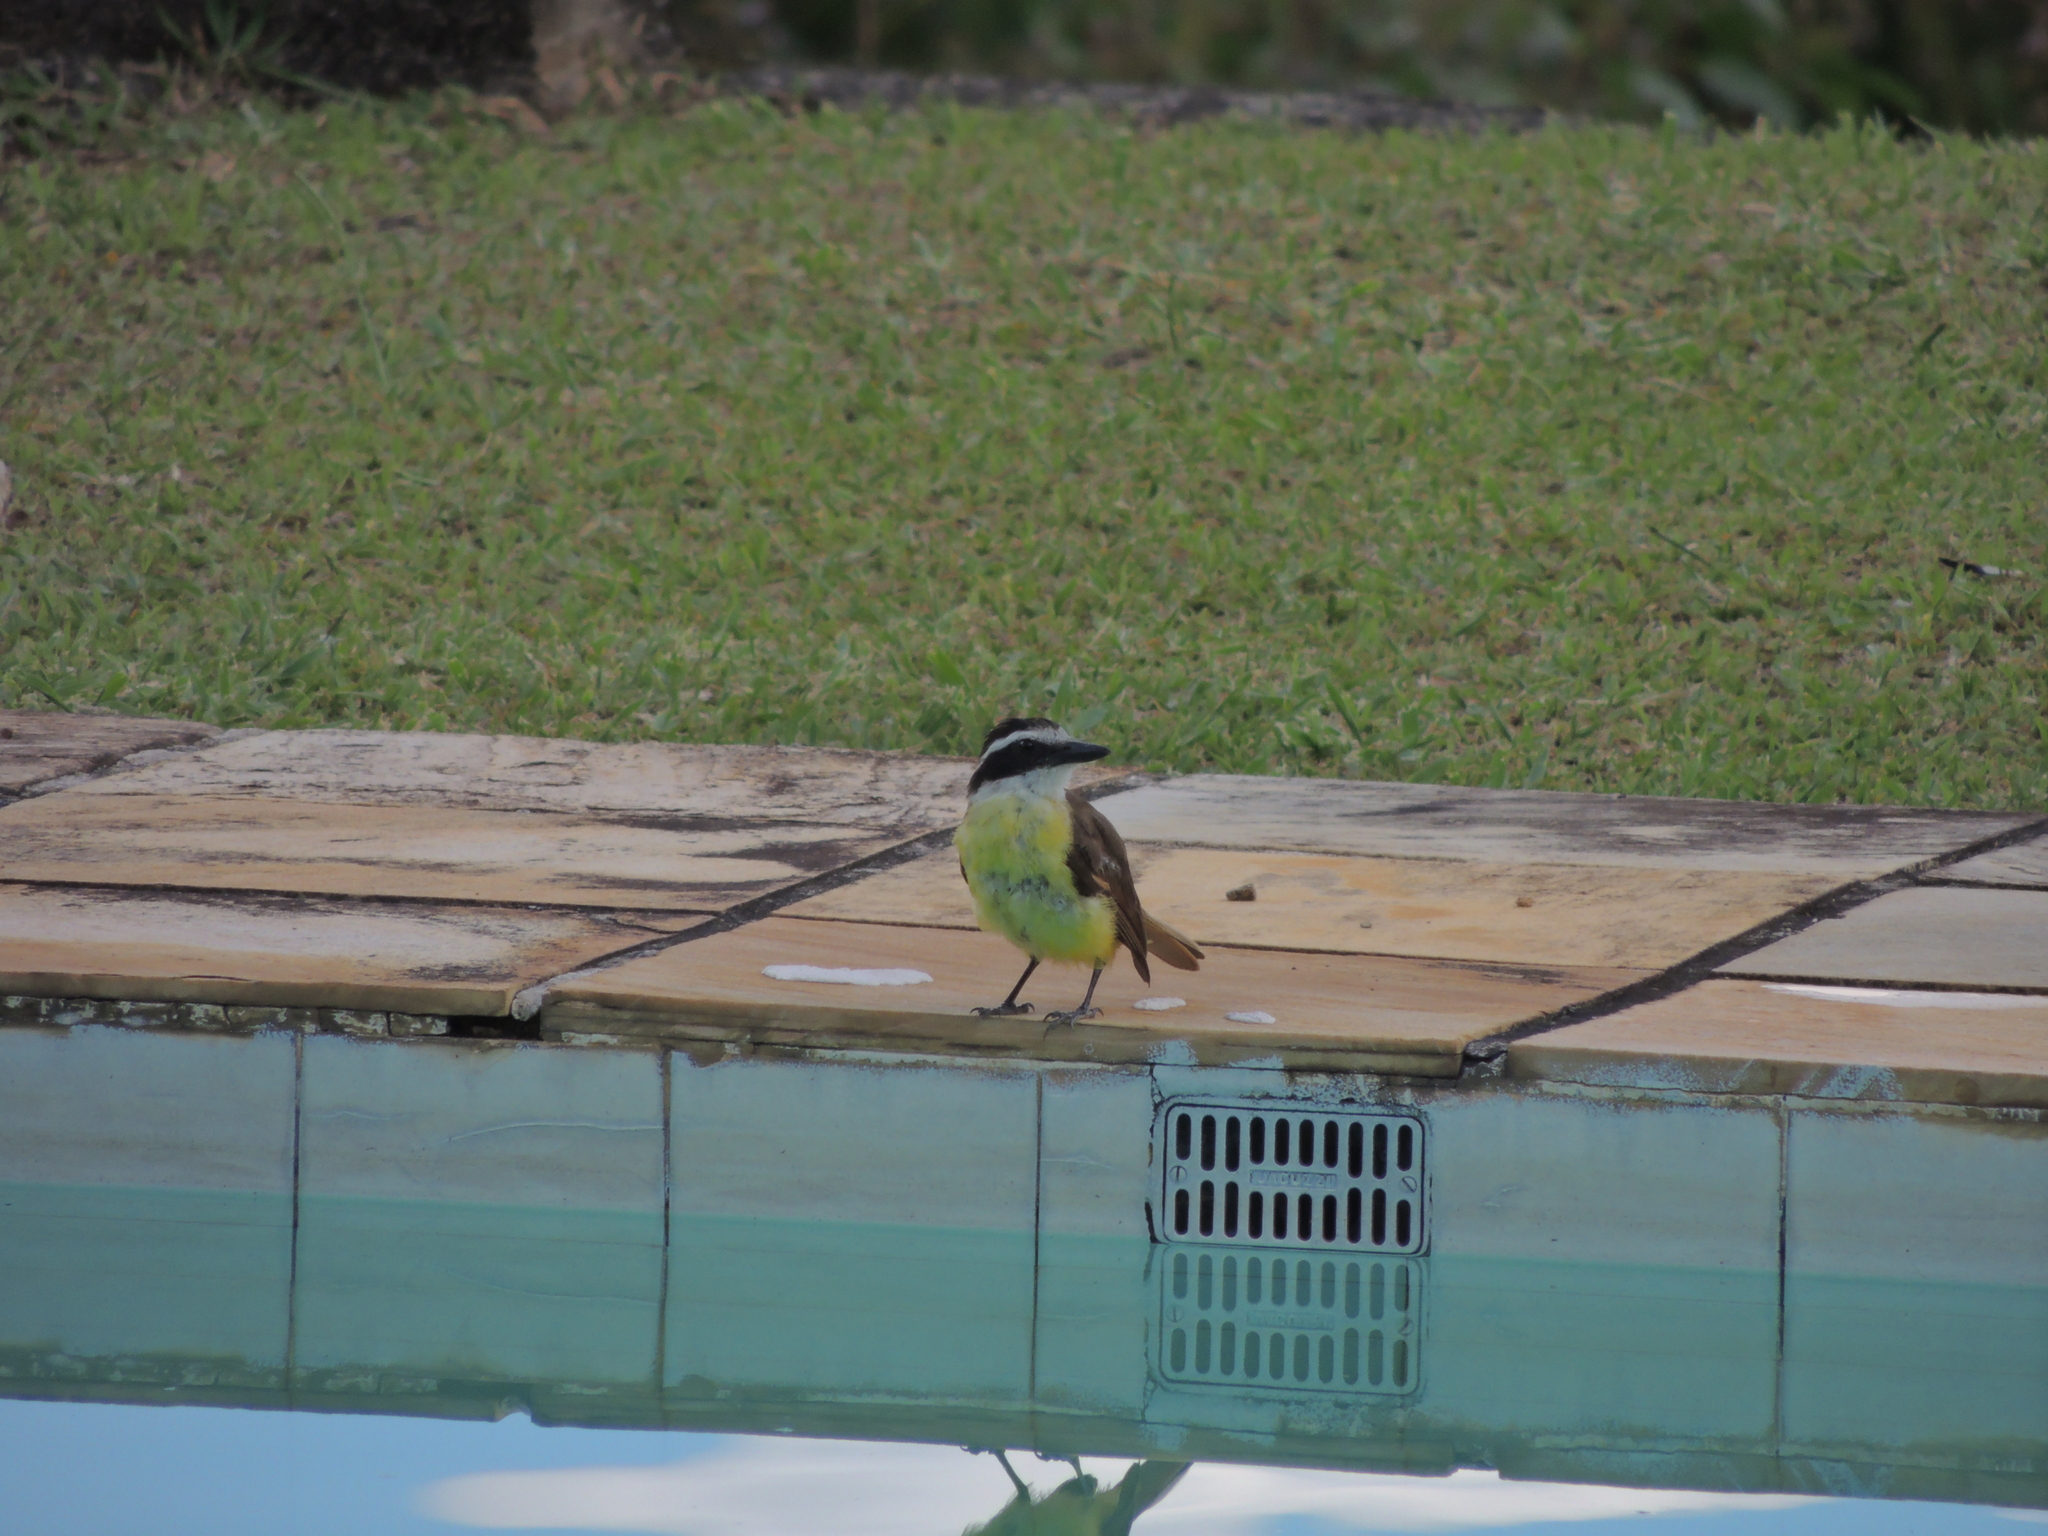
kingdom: Animalia
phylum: Chordata
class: Aves
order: Passeriformes
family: Tyrannidae
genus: Pitangus
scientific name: Pitangus sulphuratus
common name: Great kiskadee
